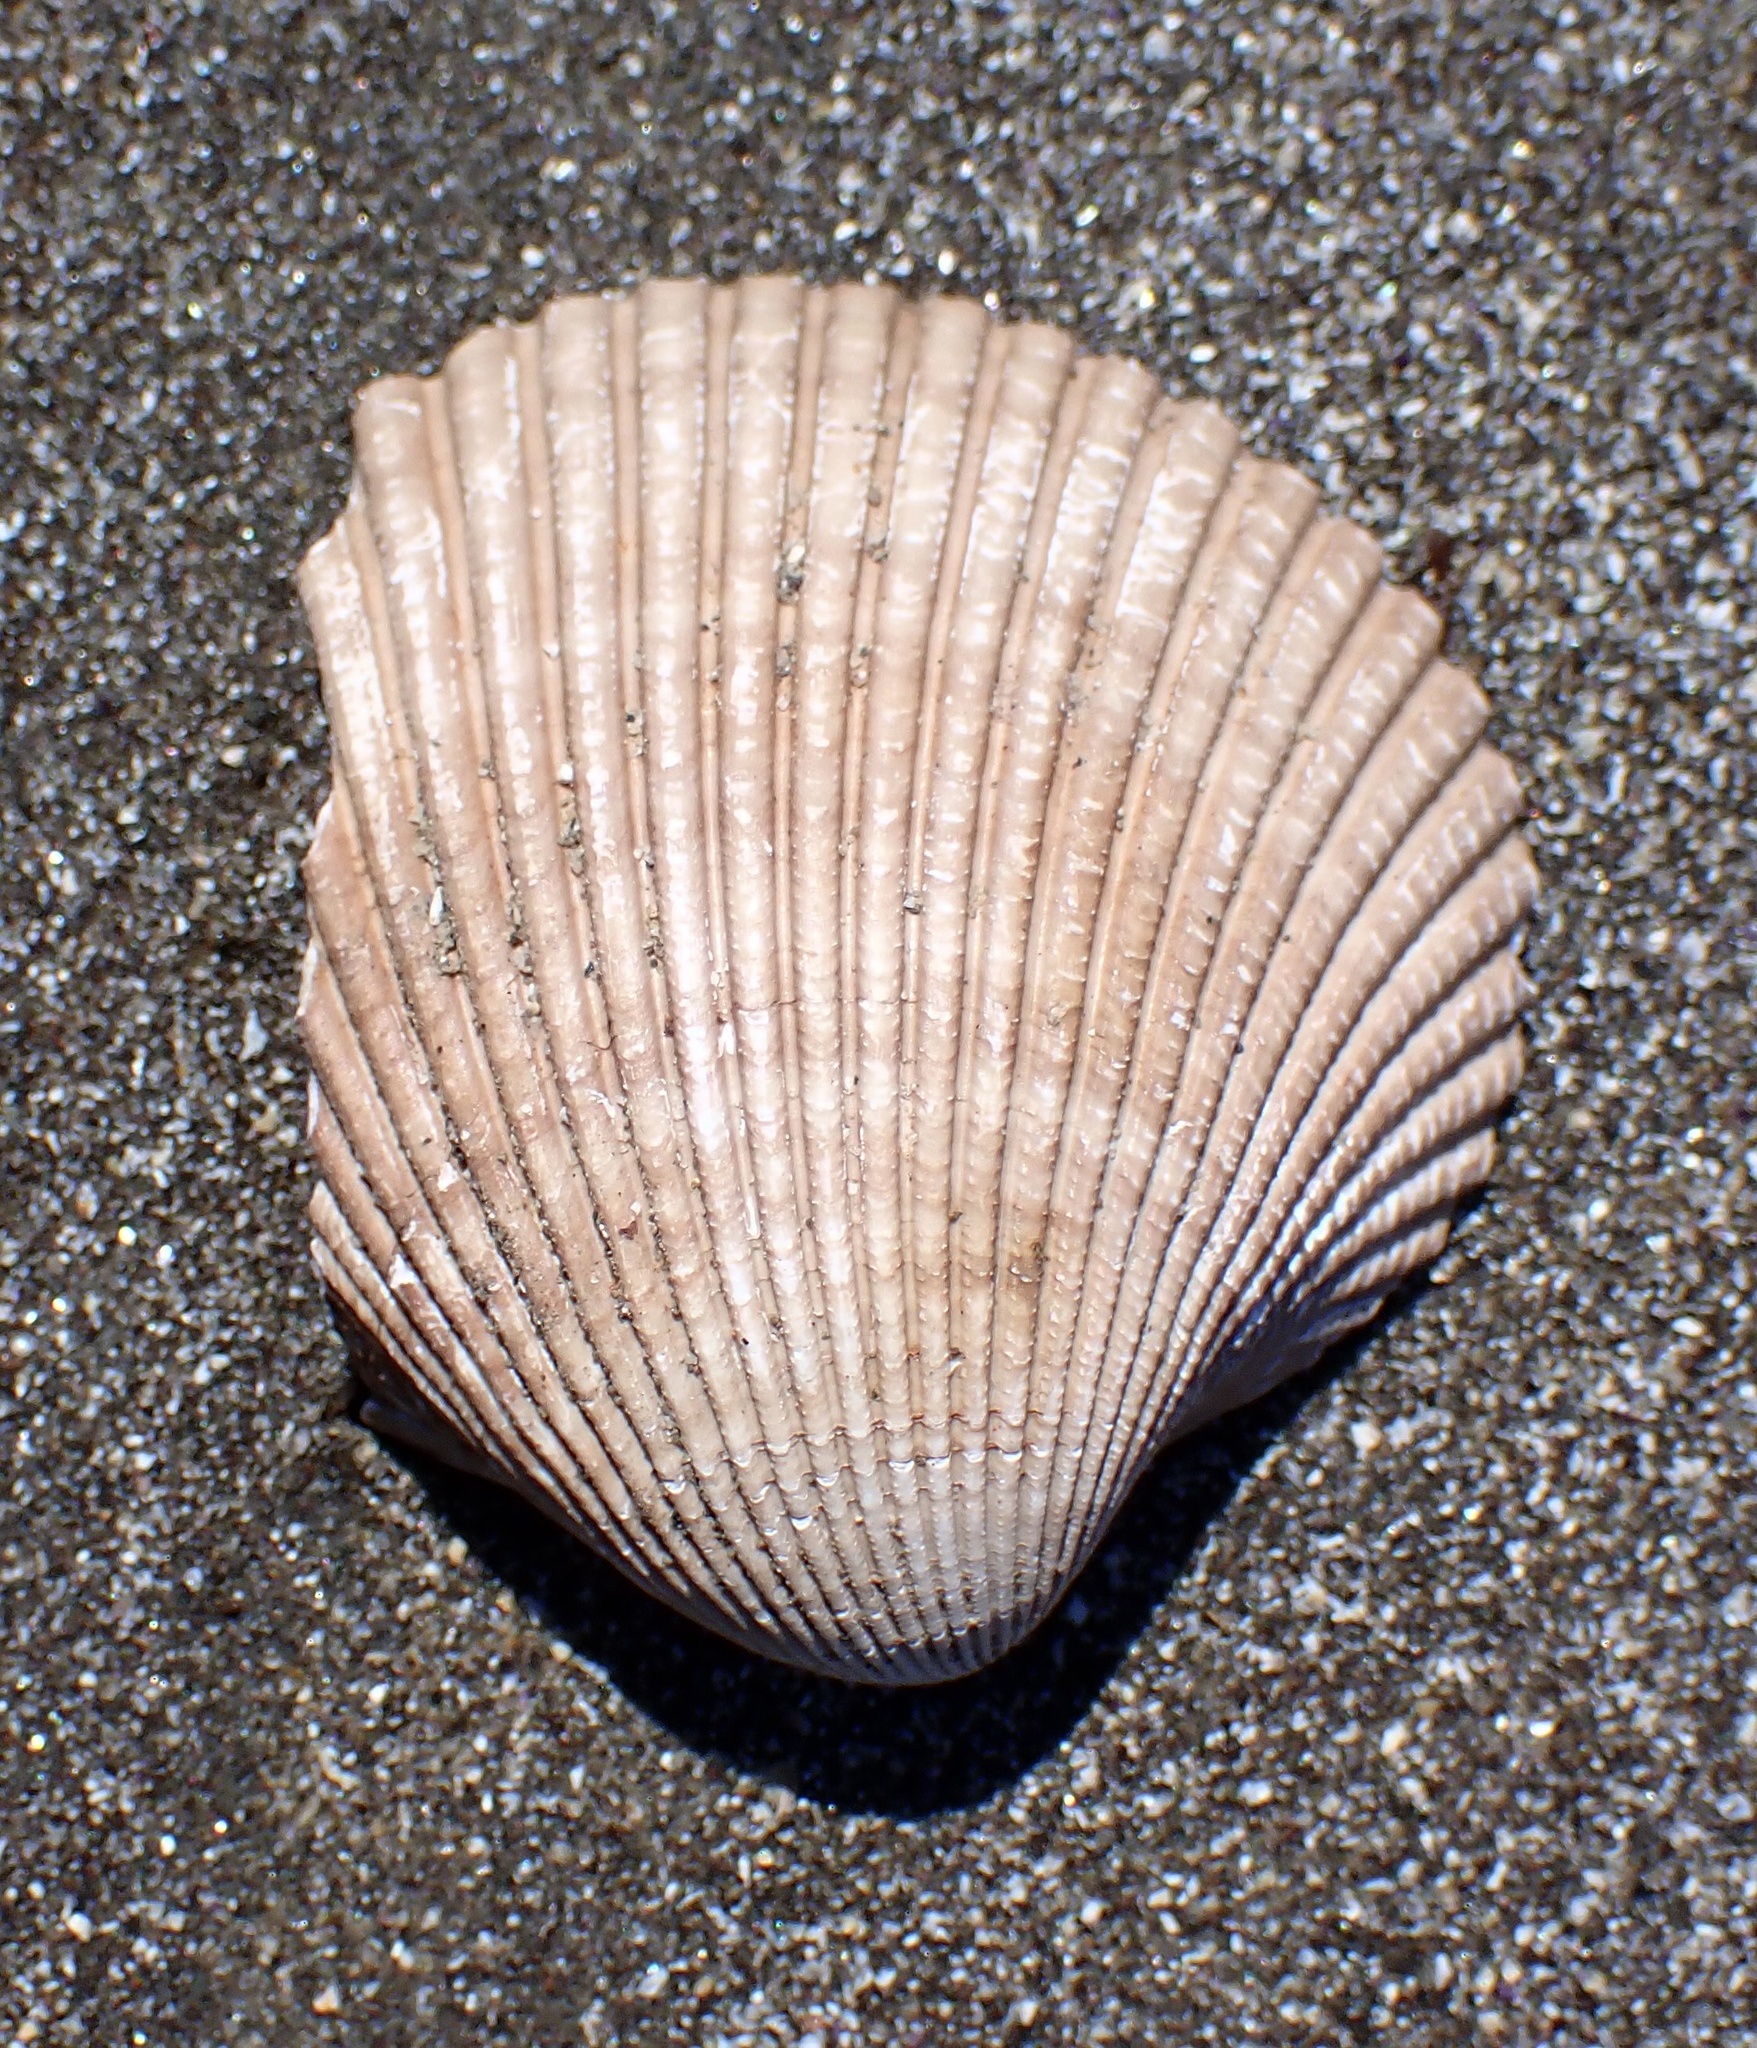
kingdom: Animalia
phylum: Mollusca
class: Bivalvia
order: Cardiida
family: Cardiidae
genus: Clinocardium
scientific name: Clinocardium nuttallii
